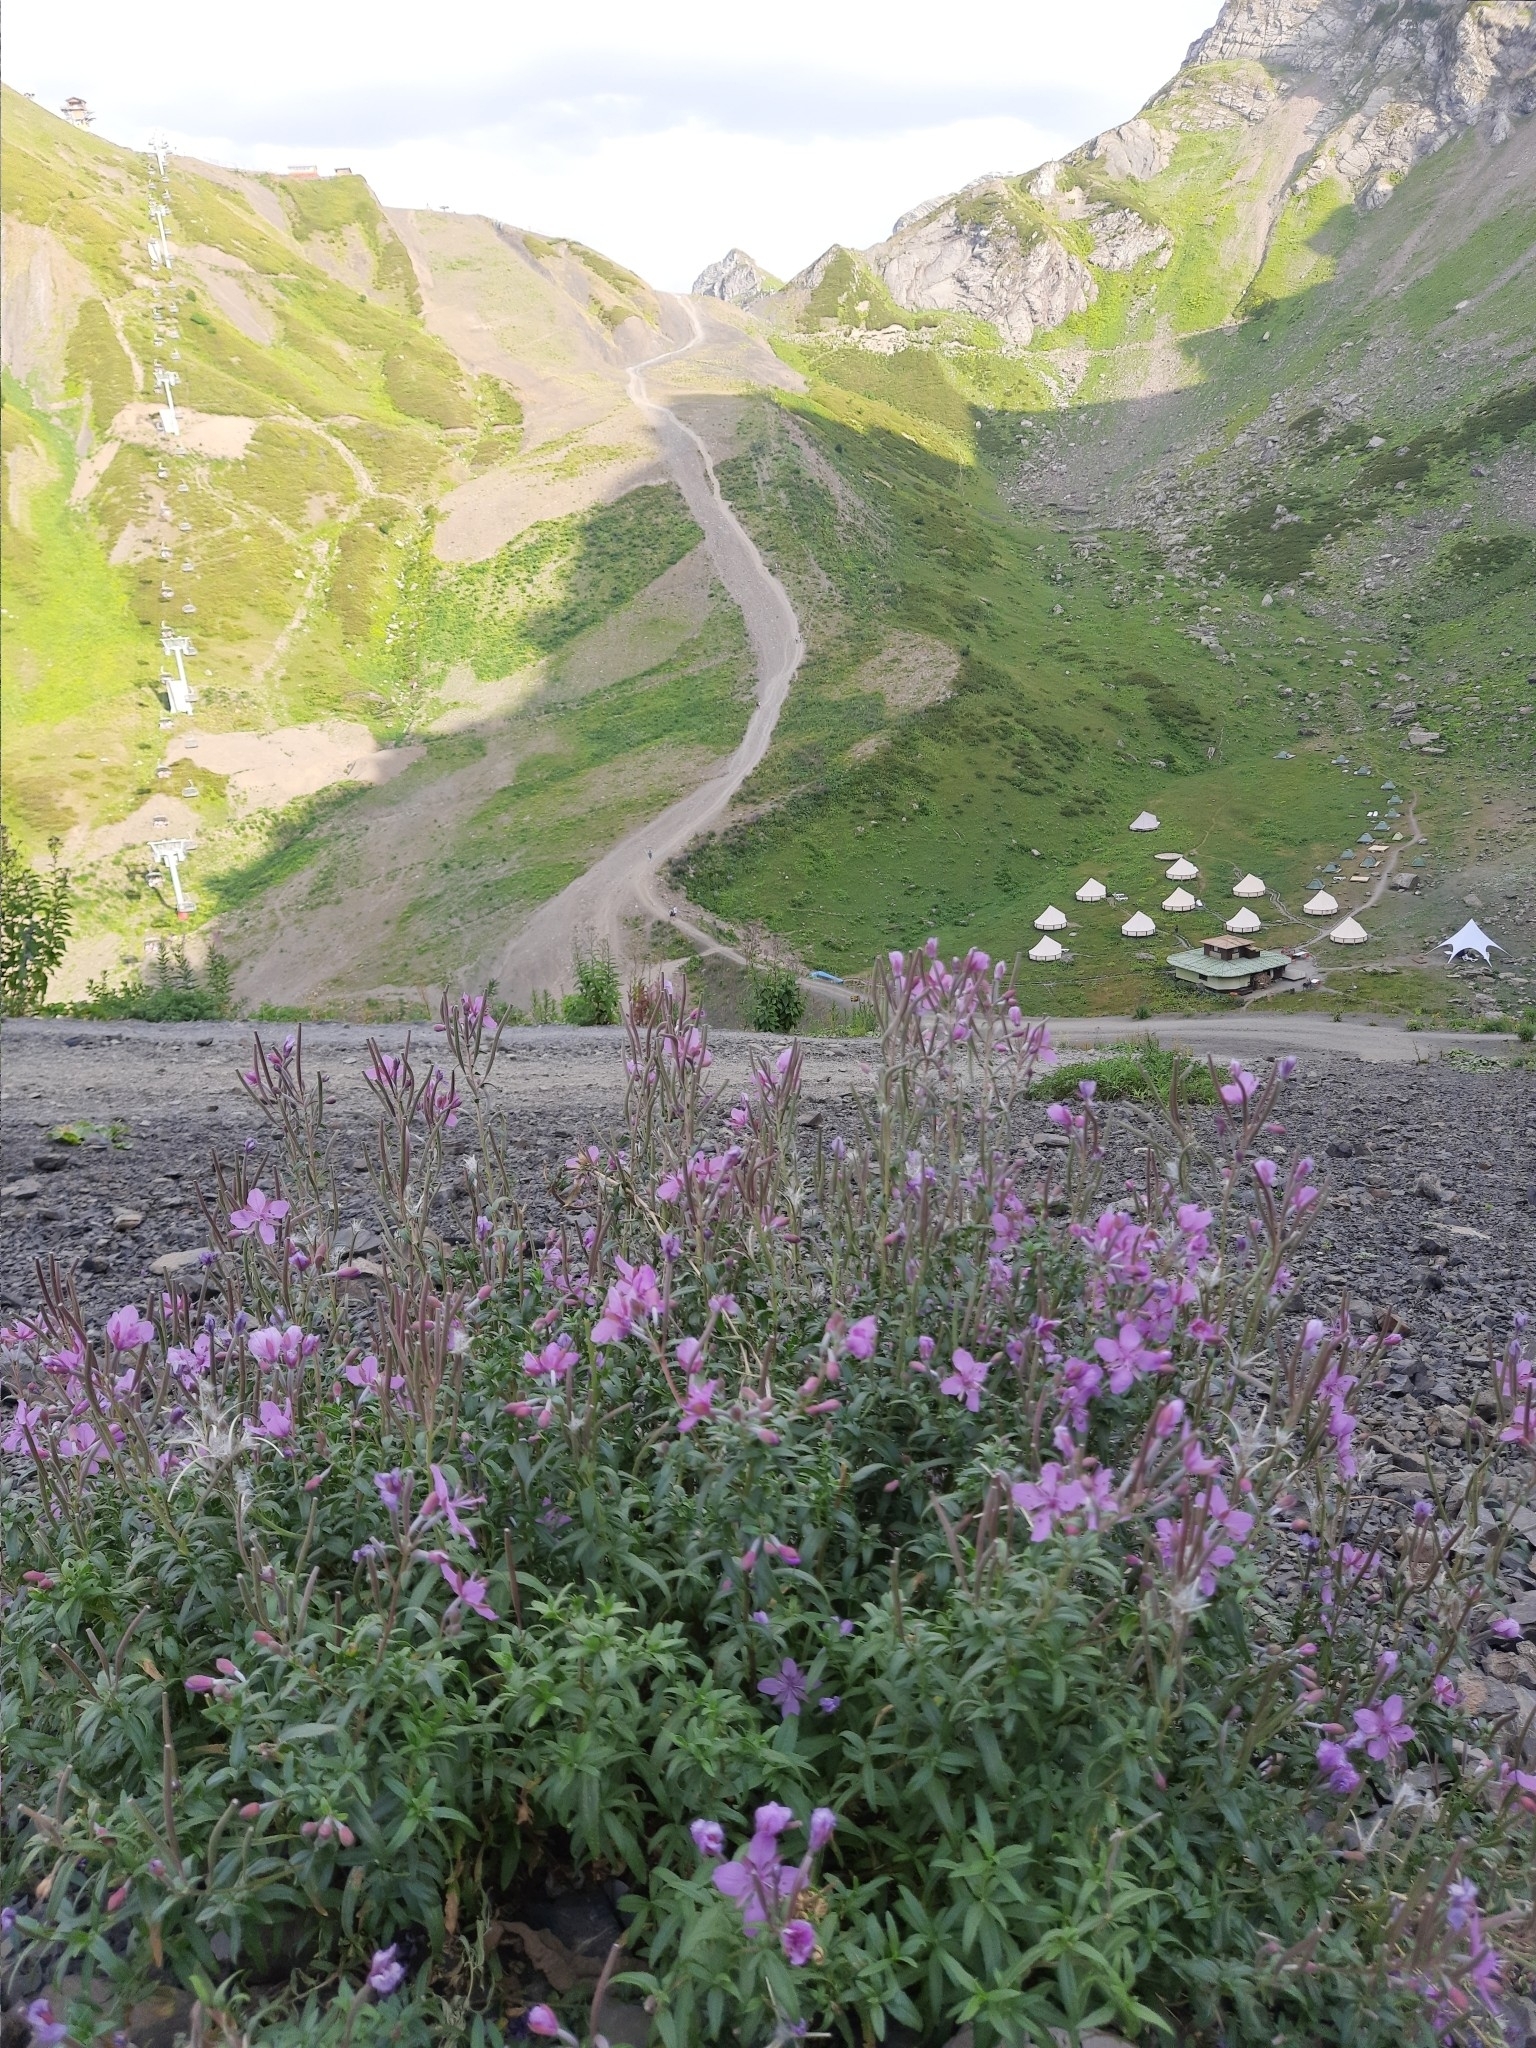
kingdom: Plantae
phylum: Tracheophyta
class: Magnoliopsida
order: Myrtales
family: Onagraceae
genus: Chamaenerion
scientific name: Chamaenerion colchicum
